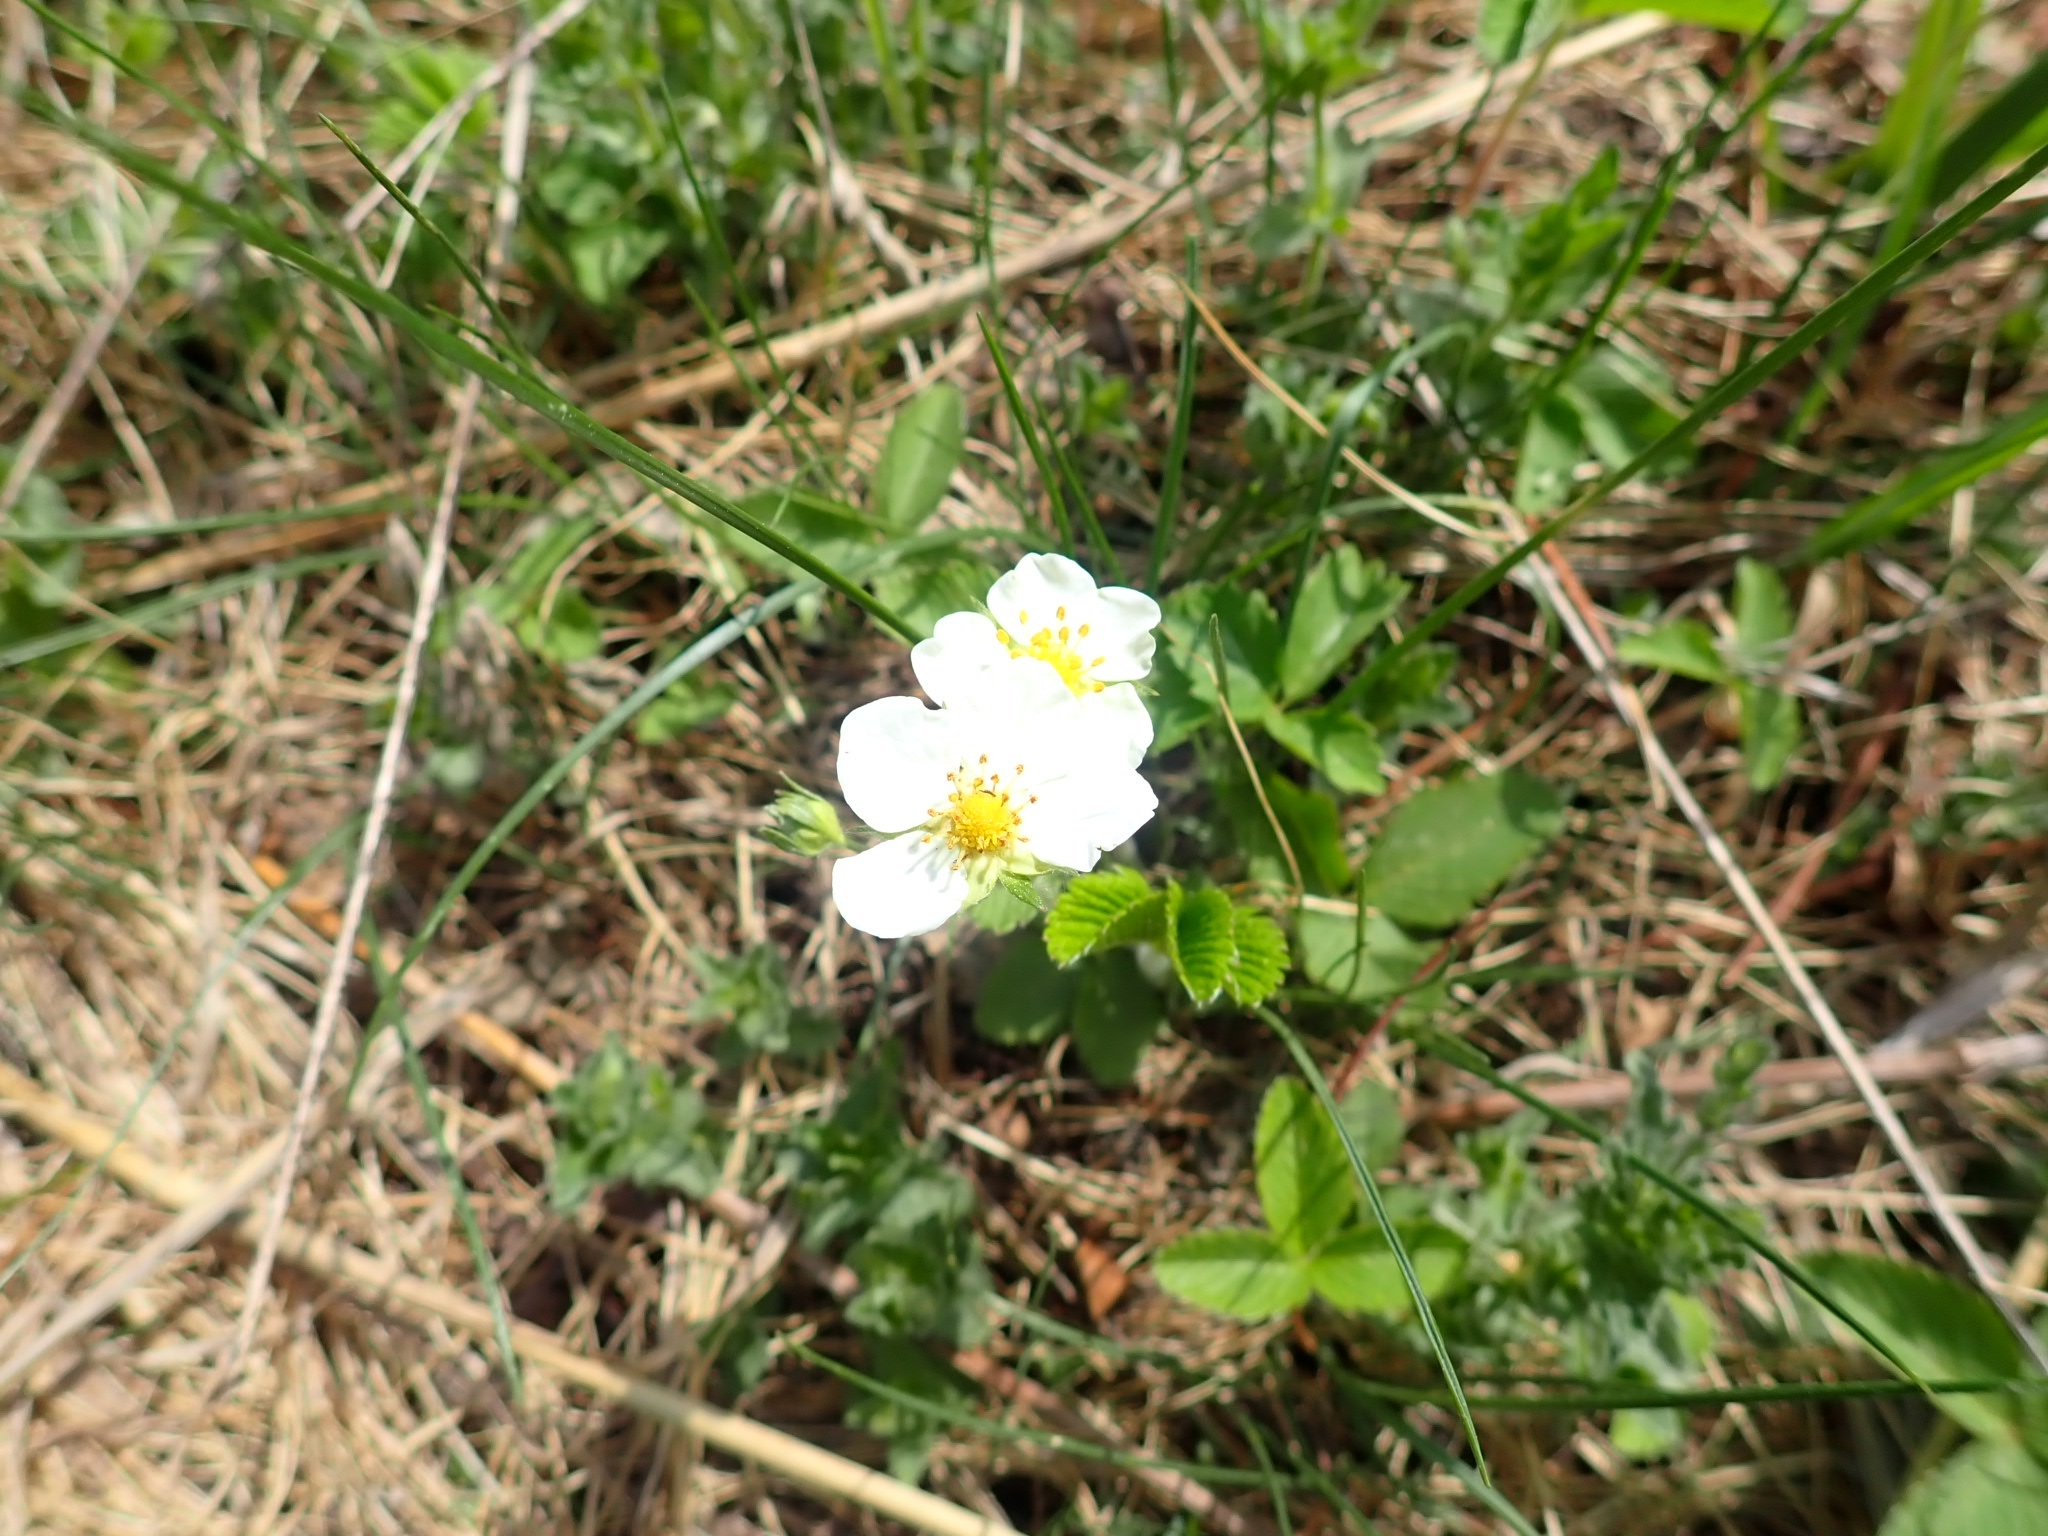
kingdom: Plantae
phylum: Tracheophyta
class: Magnoliopsida
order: Rosales
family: Rosaceae
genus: Fragaria
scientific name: Fragaria viridis
